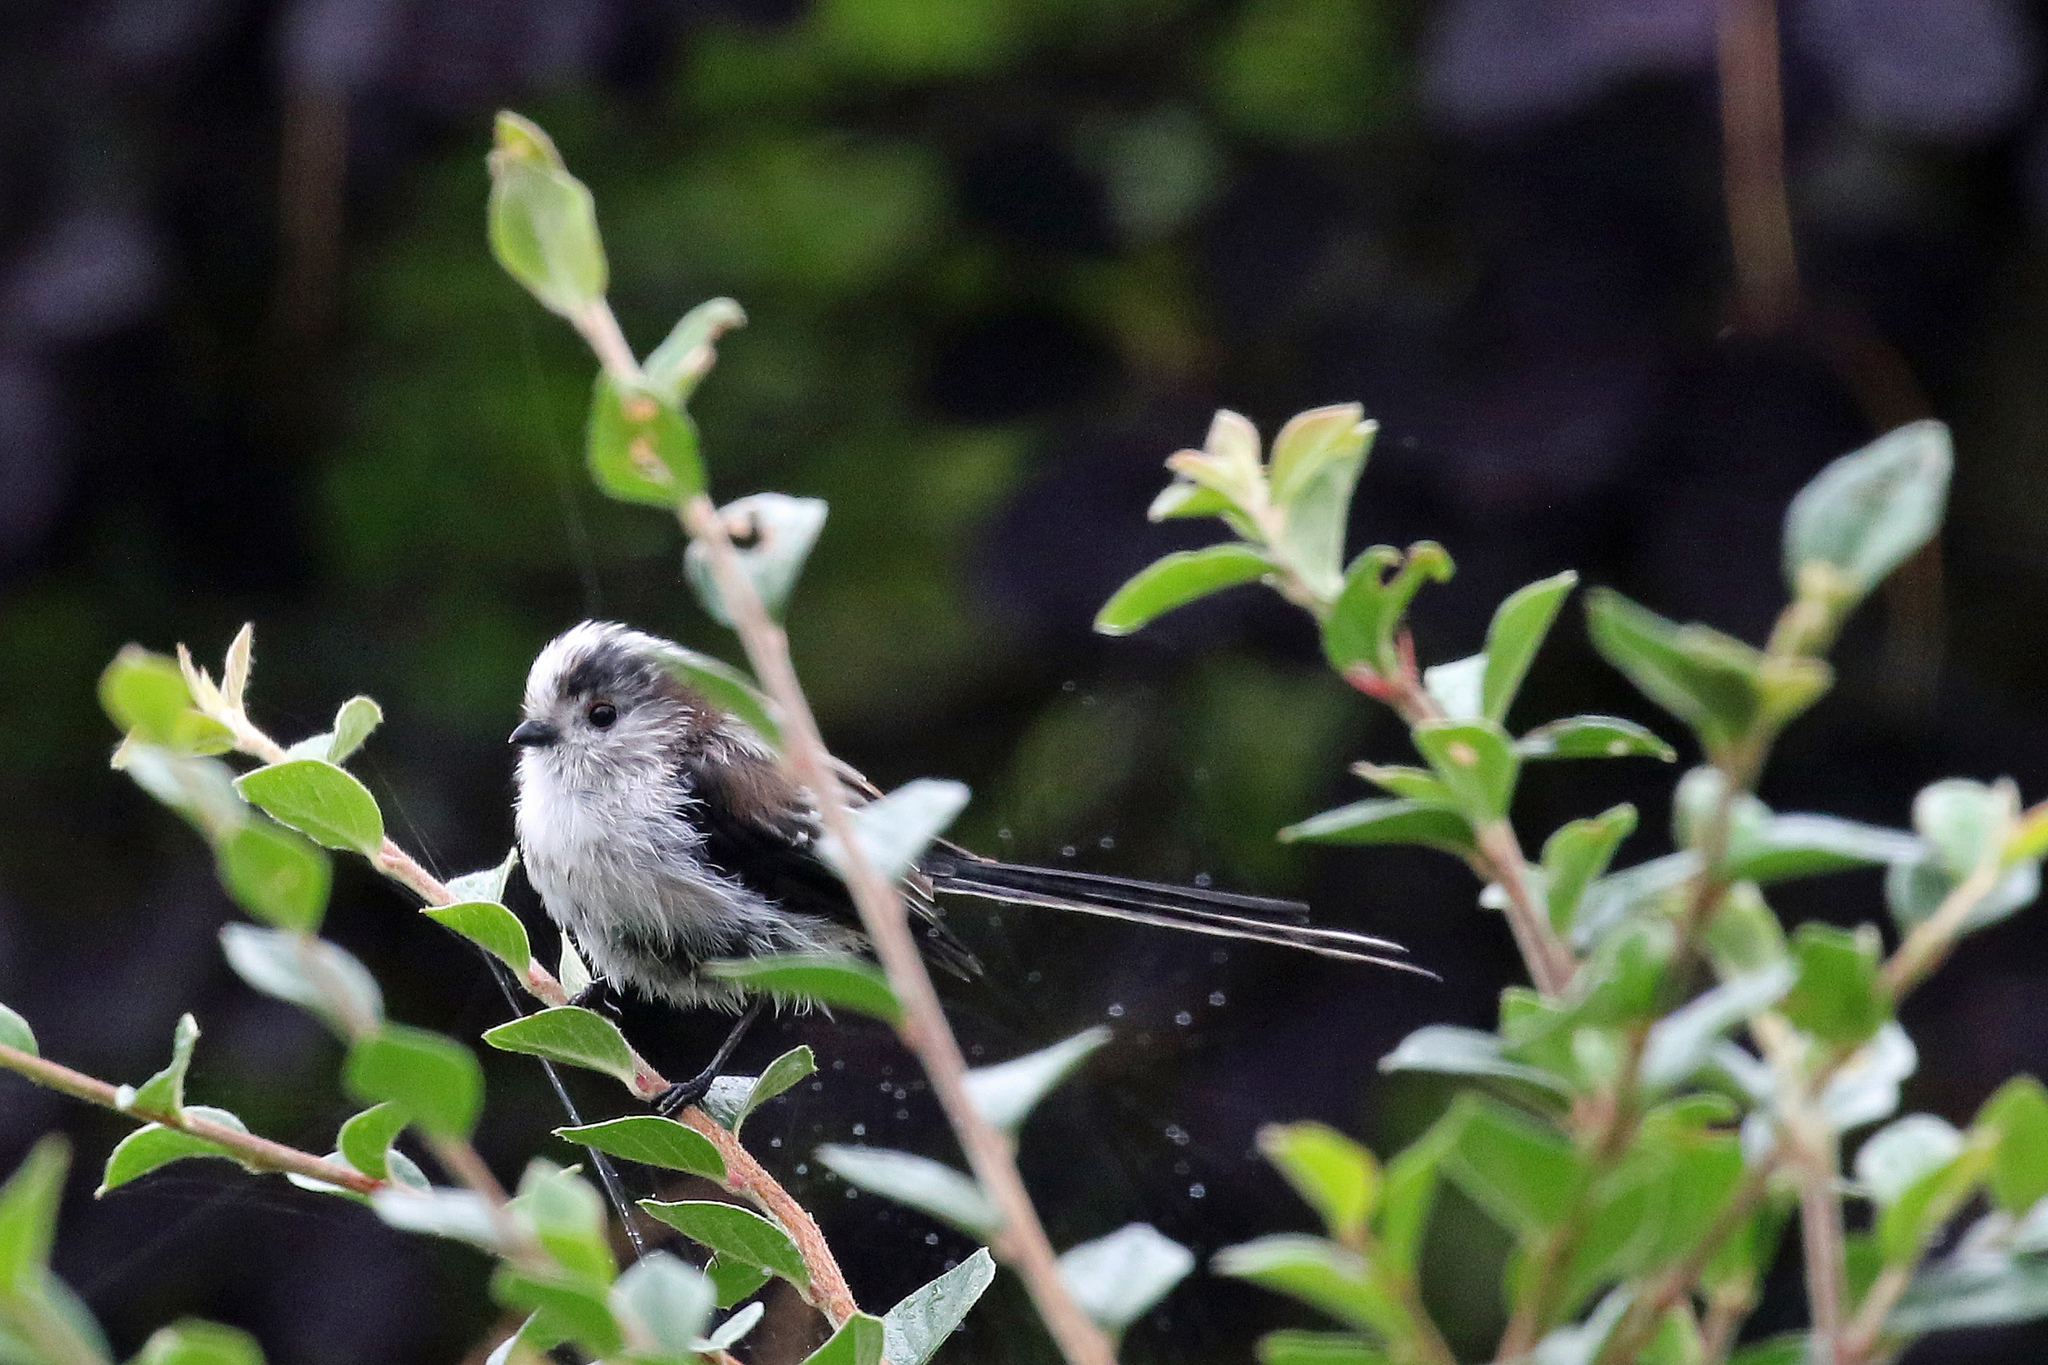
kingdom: Animalia
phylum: Chordata
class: Aves
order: Passeriformes
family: Aegithalidae
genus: Aegithalos
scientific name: Aegithalos caudatus
